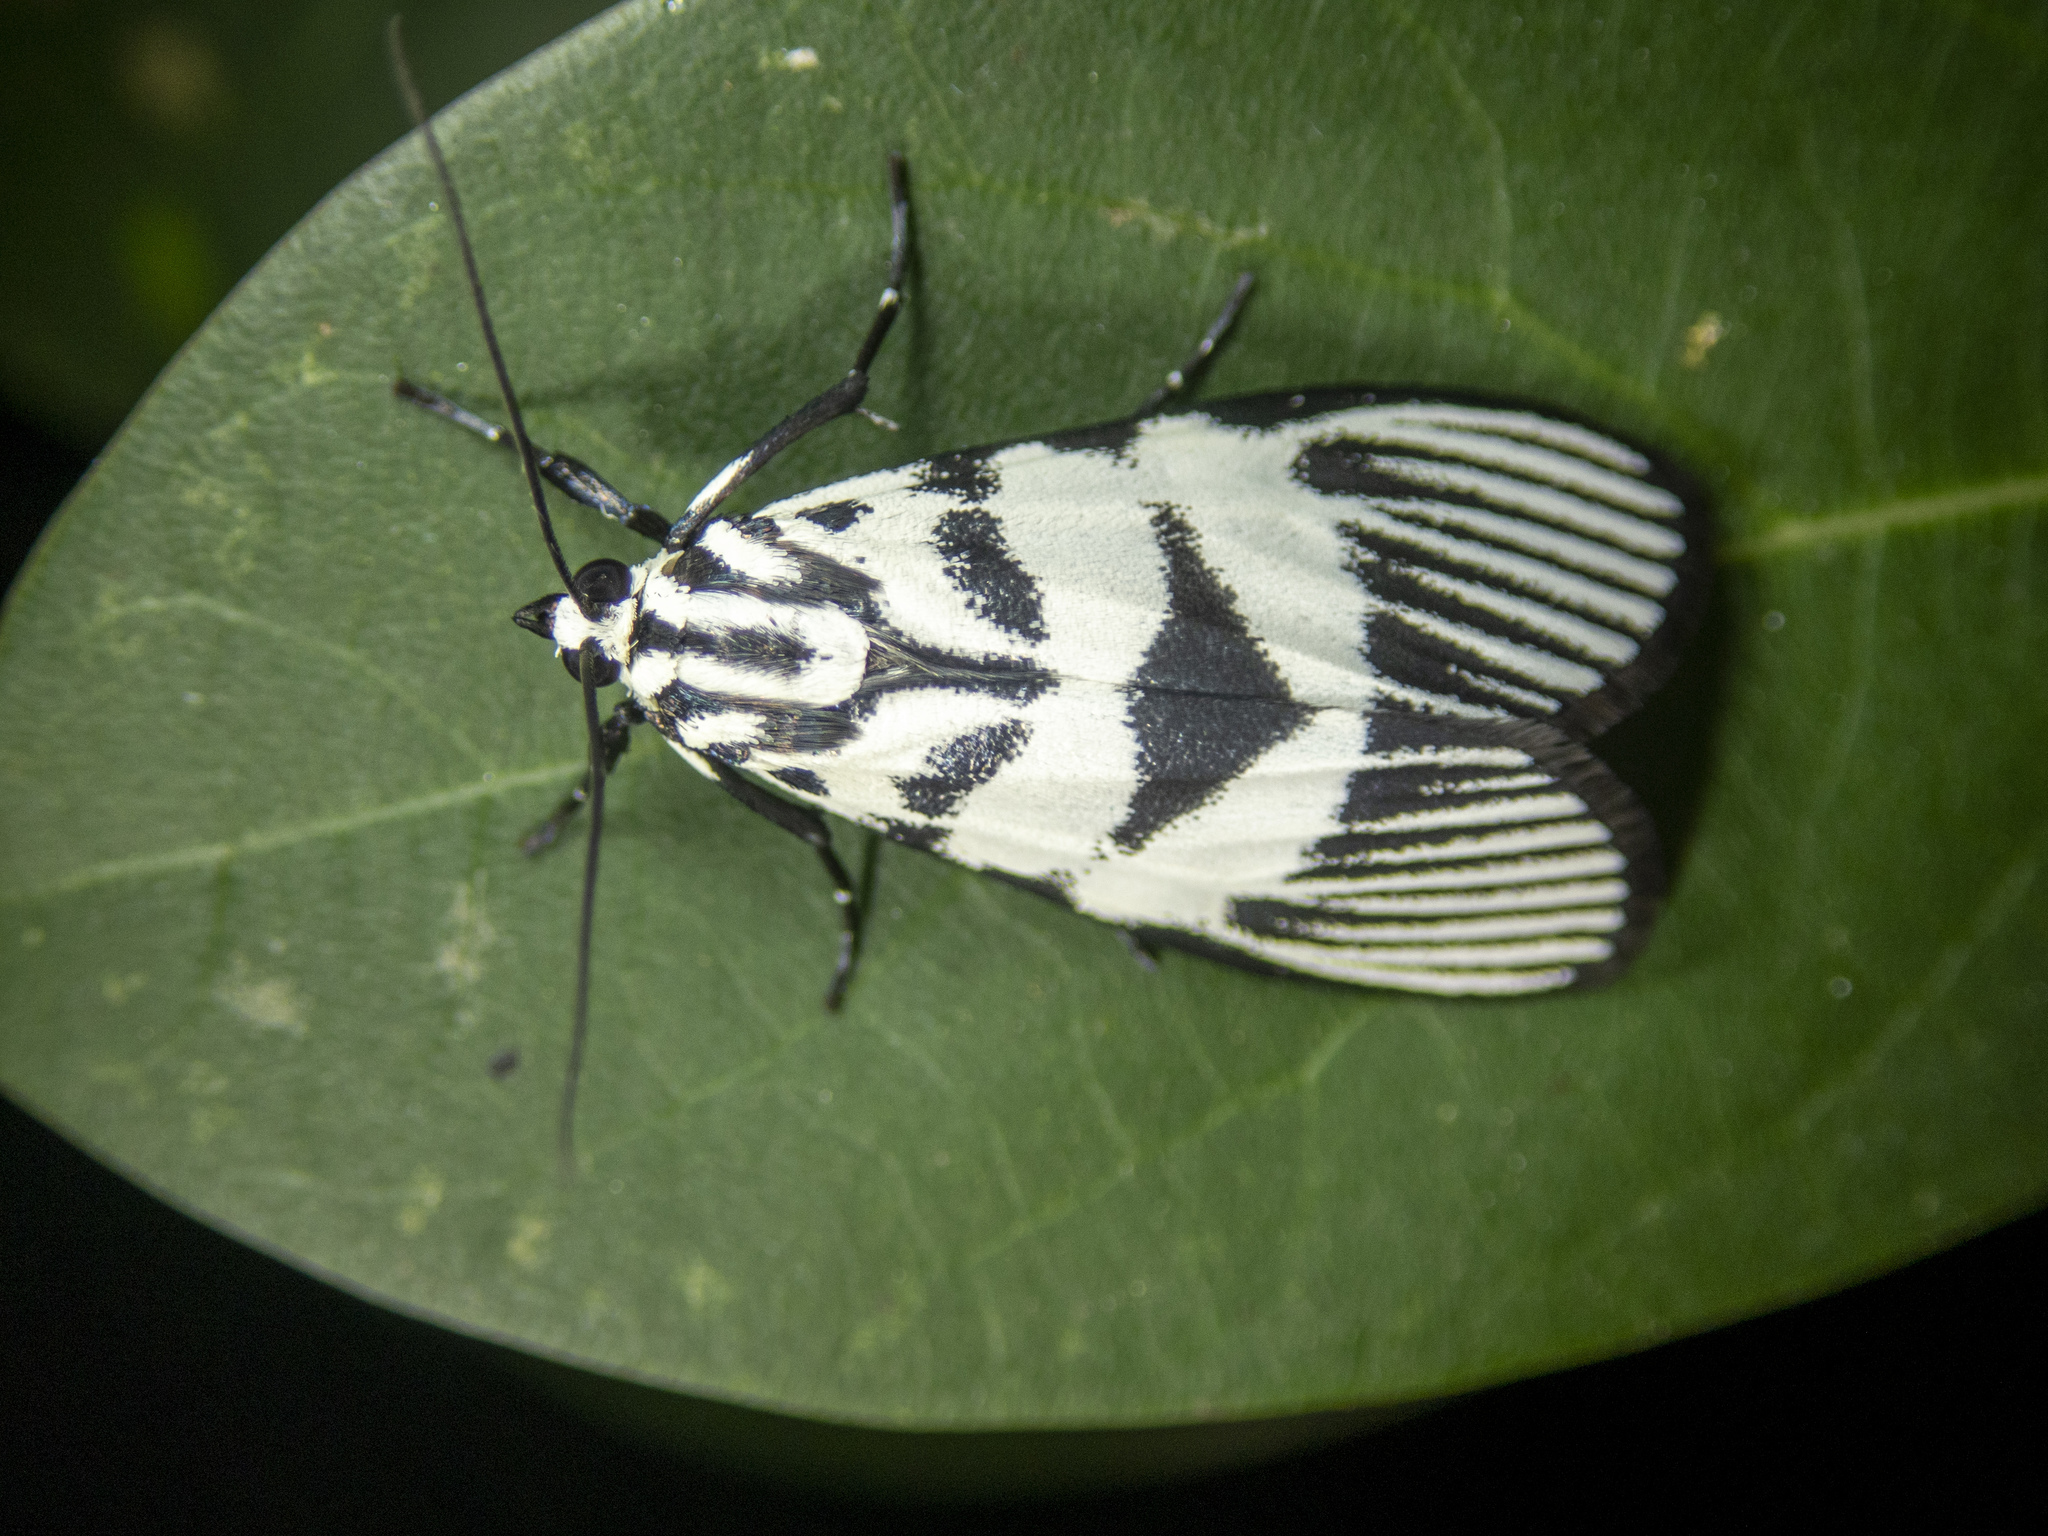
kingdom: Animalia
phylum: Arthropoda
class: Insecta
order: Lepidoptera
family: Crambidae
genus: Heortia
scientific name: Heortia vitessoides
